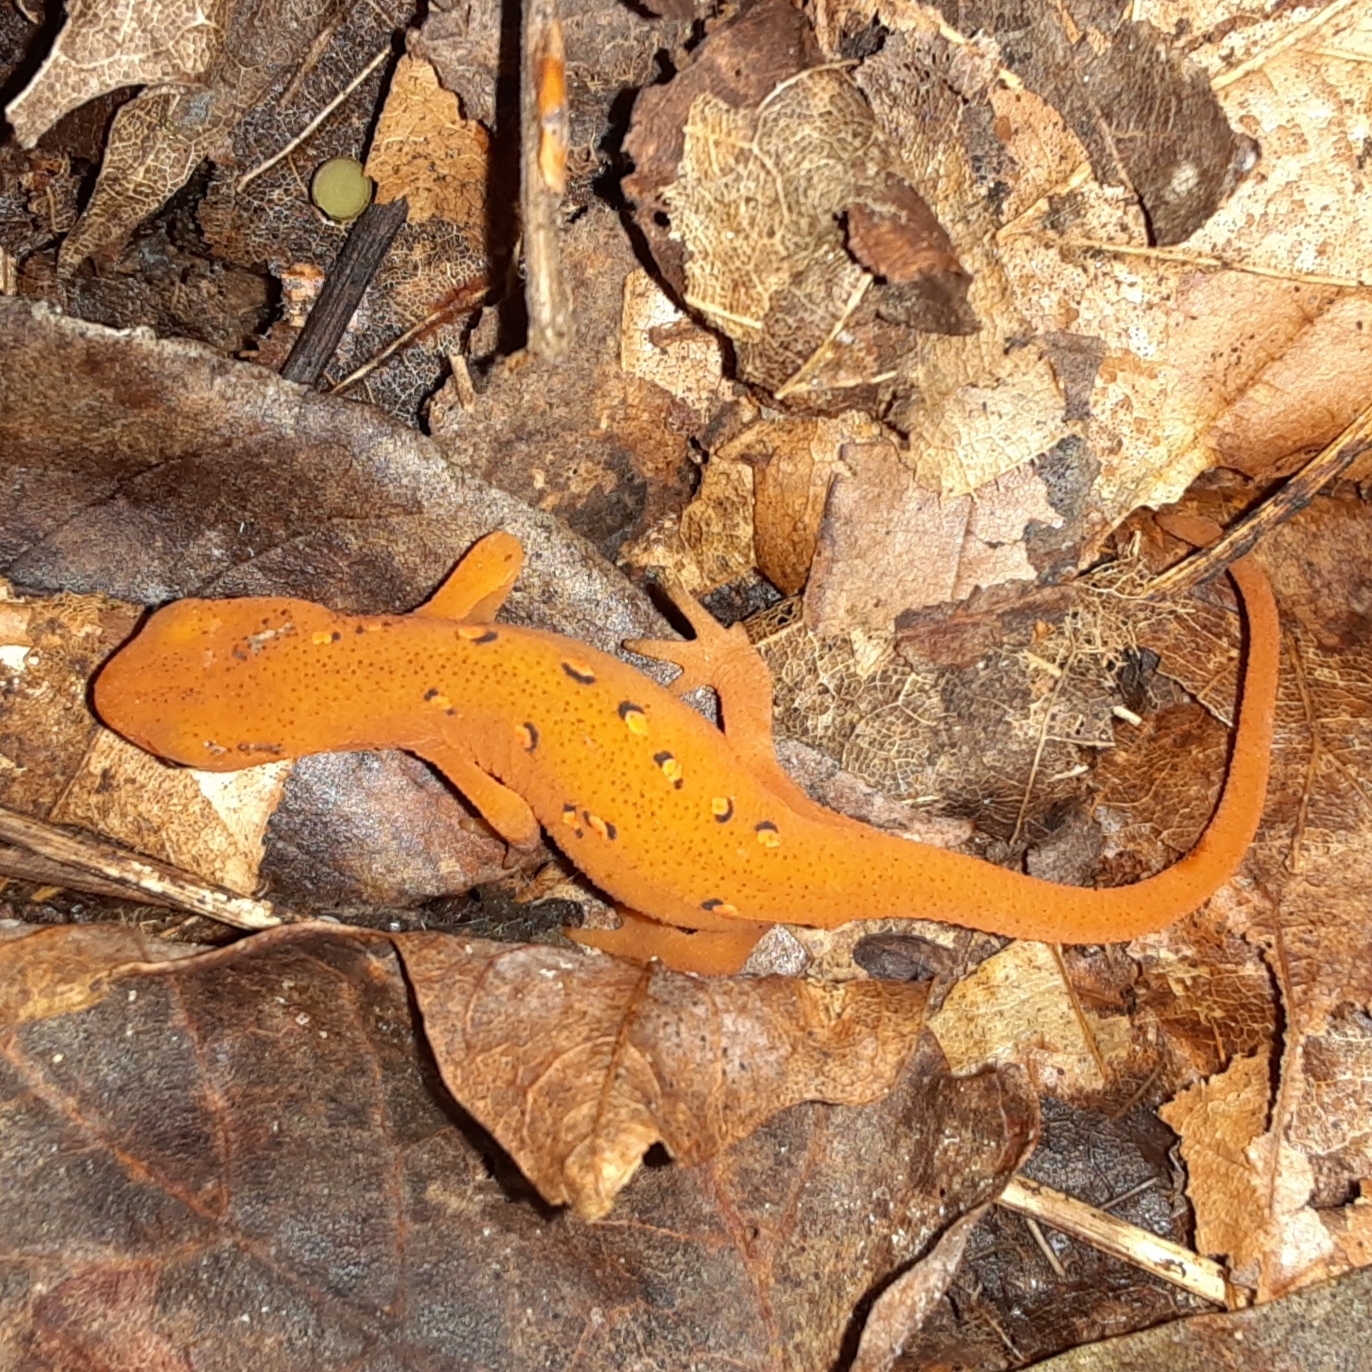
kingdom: Animalia
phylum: Chordata
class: Amphibia
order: Caudata
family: Salamandridae
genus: Notophthalmus
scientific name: Notophthalmus viridescens
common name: Eastern newt
